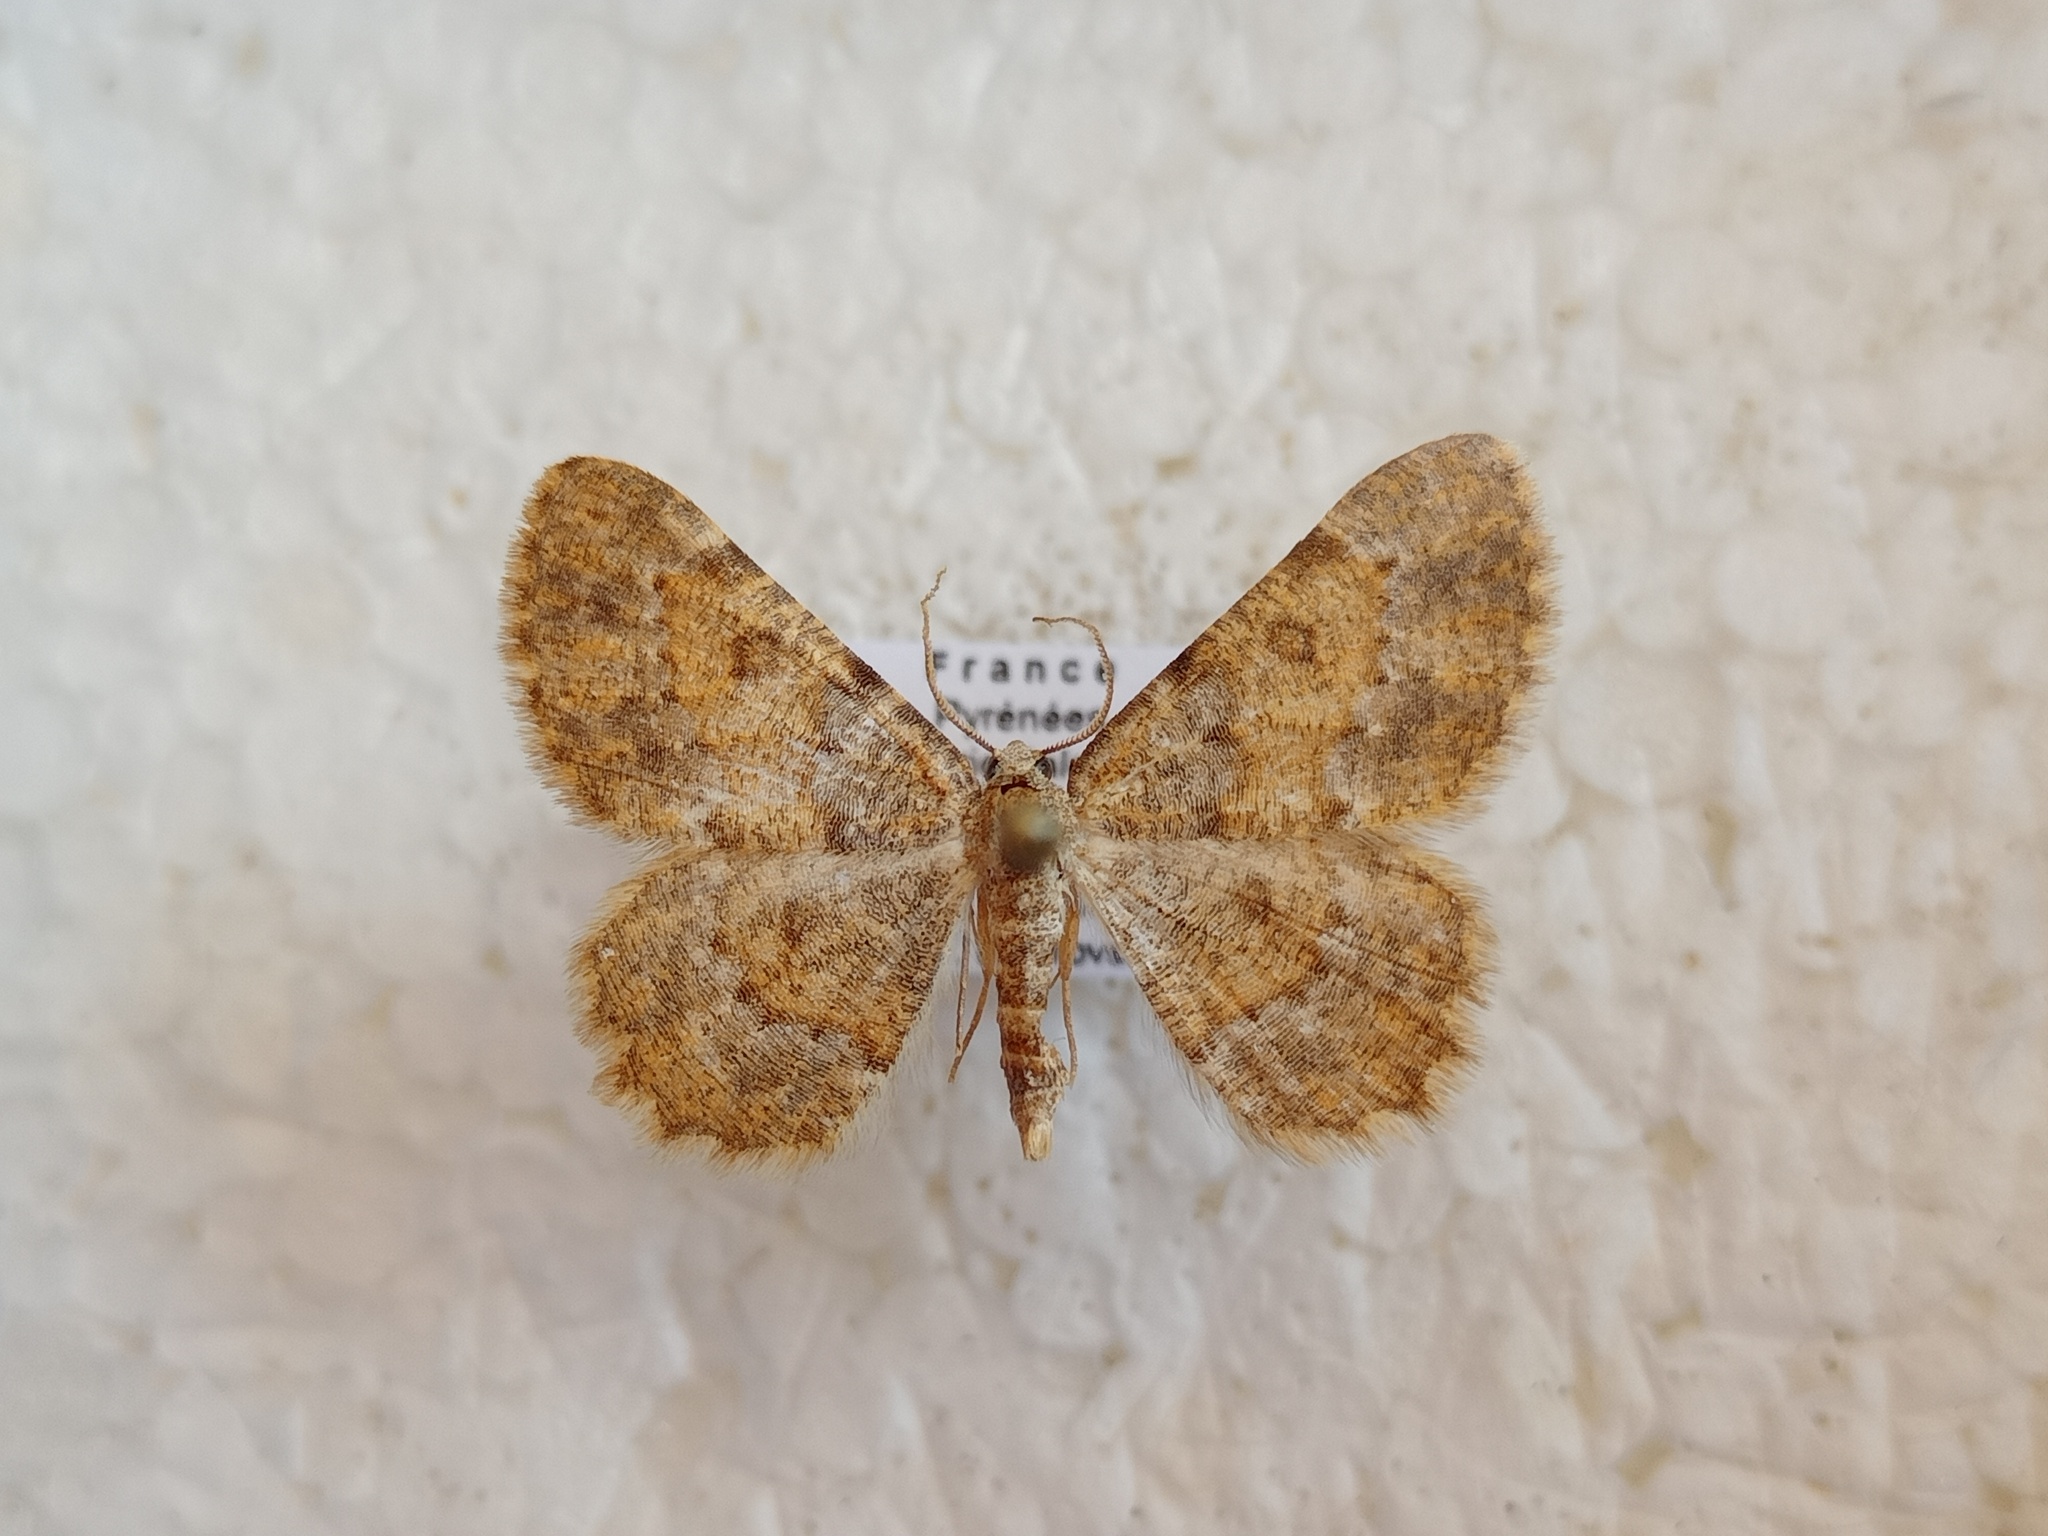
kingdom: Animalia
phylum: Arthropoda
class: Insecta
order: Lepidoptera
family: Geometridae
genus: Charissa
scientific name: Charissa mucidaria
